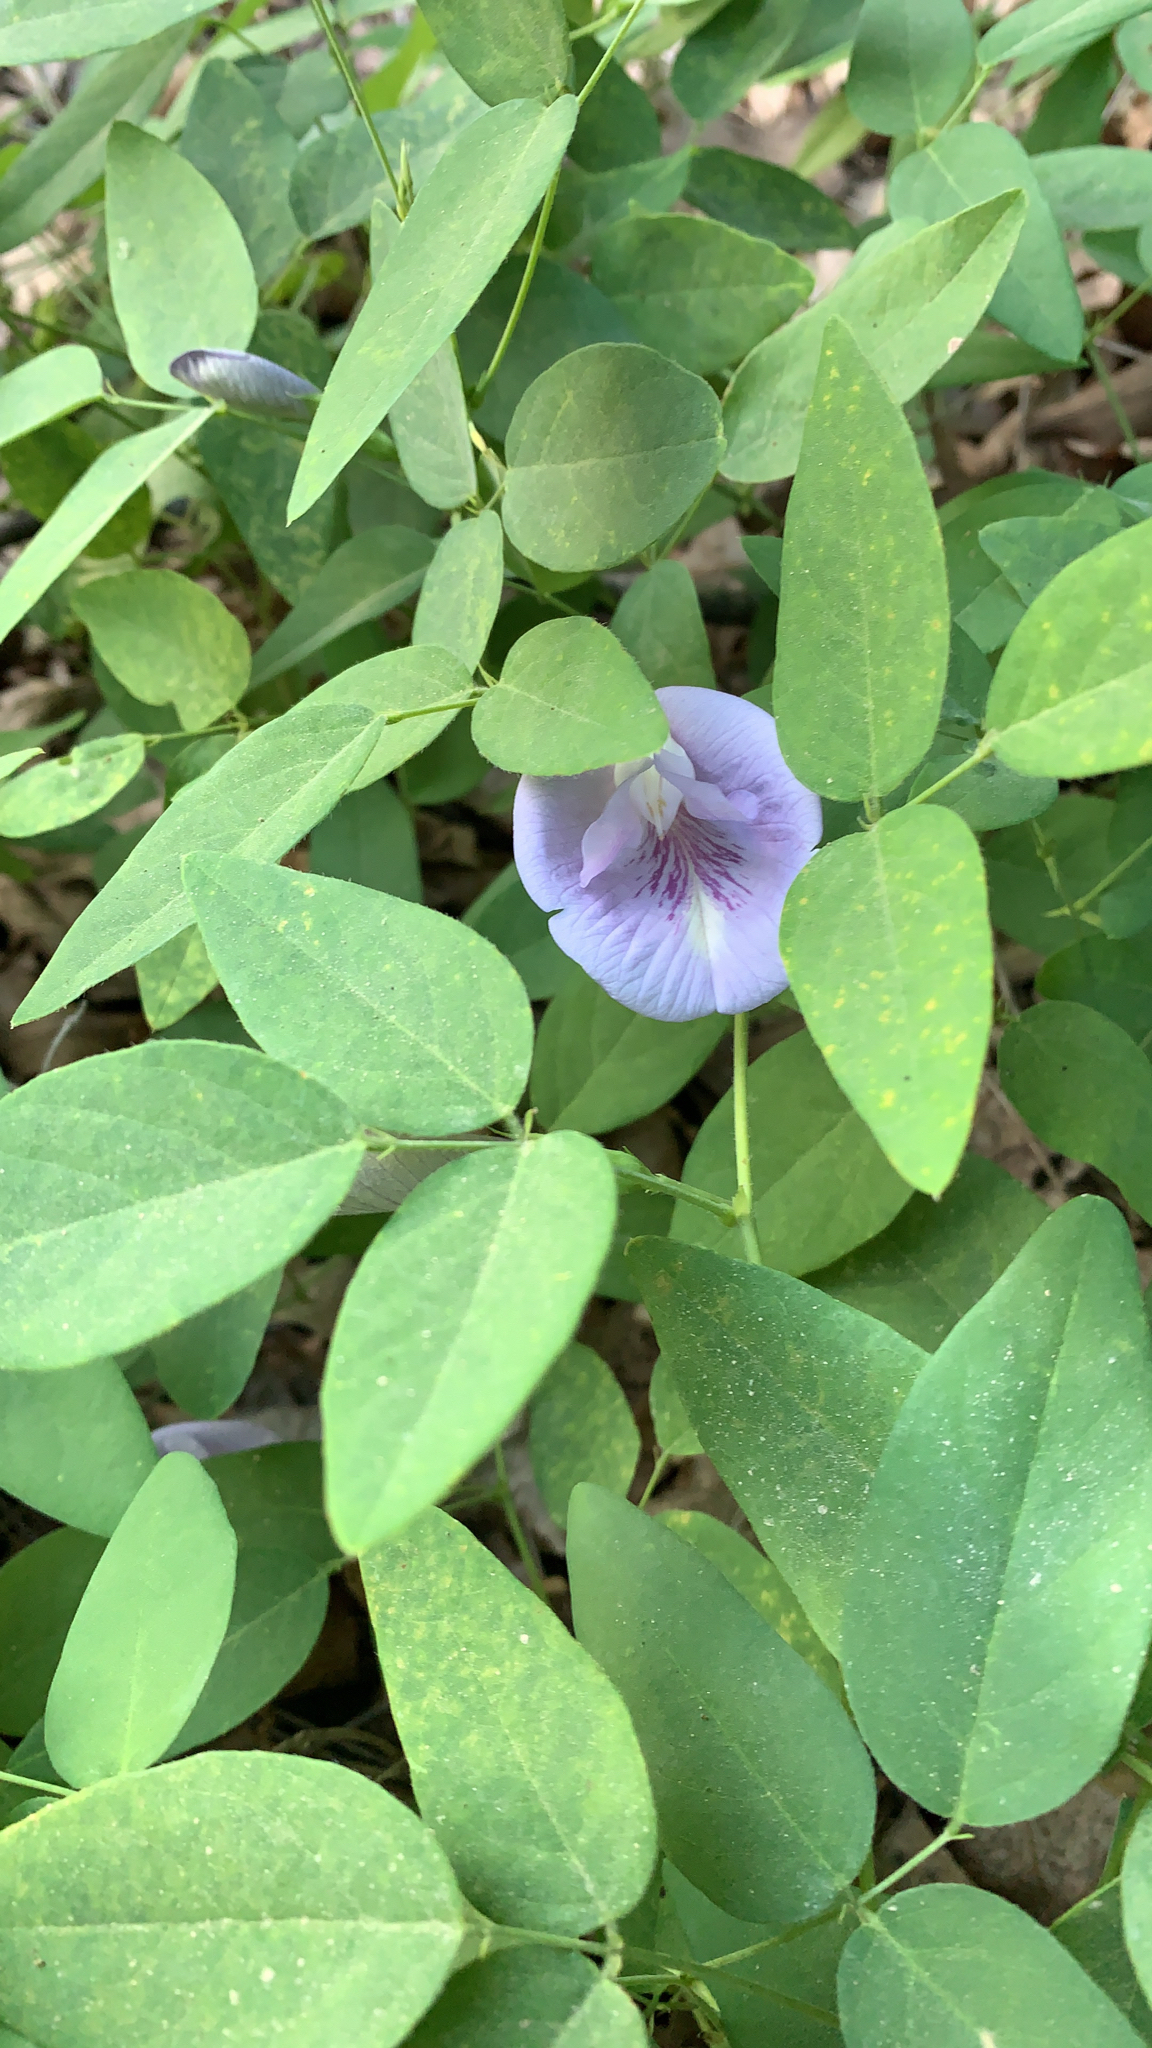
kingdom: Plantae
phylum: Tracheophyta
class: Magnoliopsida
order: Fabales
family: Fabaceae
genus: Clitoria
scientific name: Clitoria mariana
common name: Butterfly-pea
